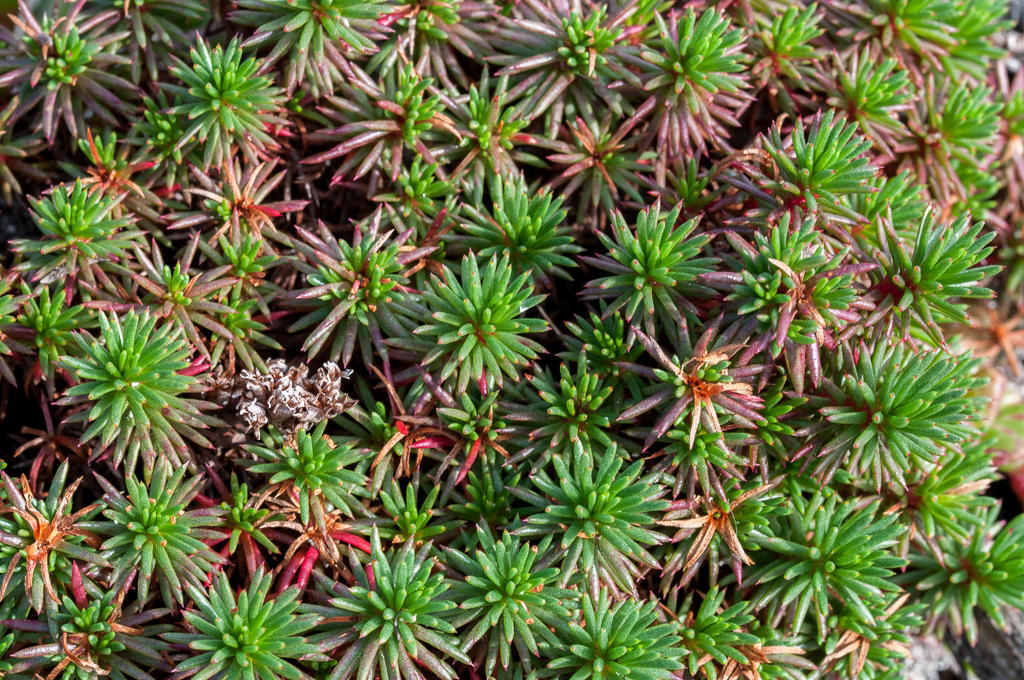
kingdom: Plantae
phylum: Tracheophyta
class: Magnoliopsida
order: Caryophyllales
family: Plumbaginaceae
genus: Limonium
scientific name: Limonium kraussianum
